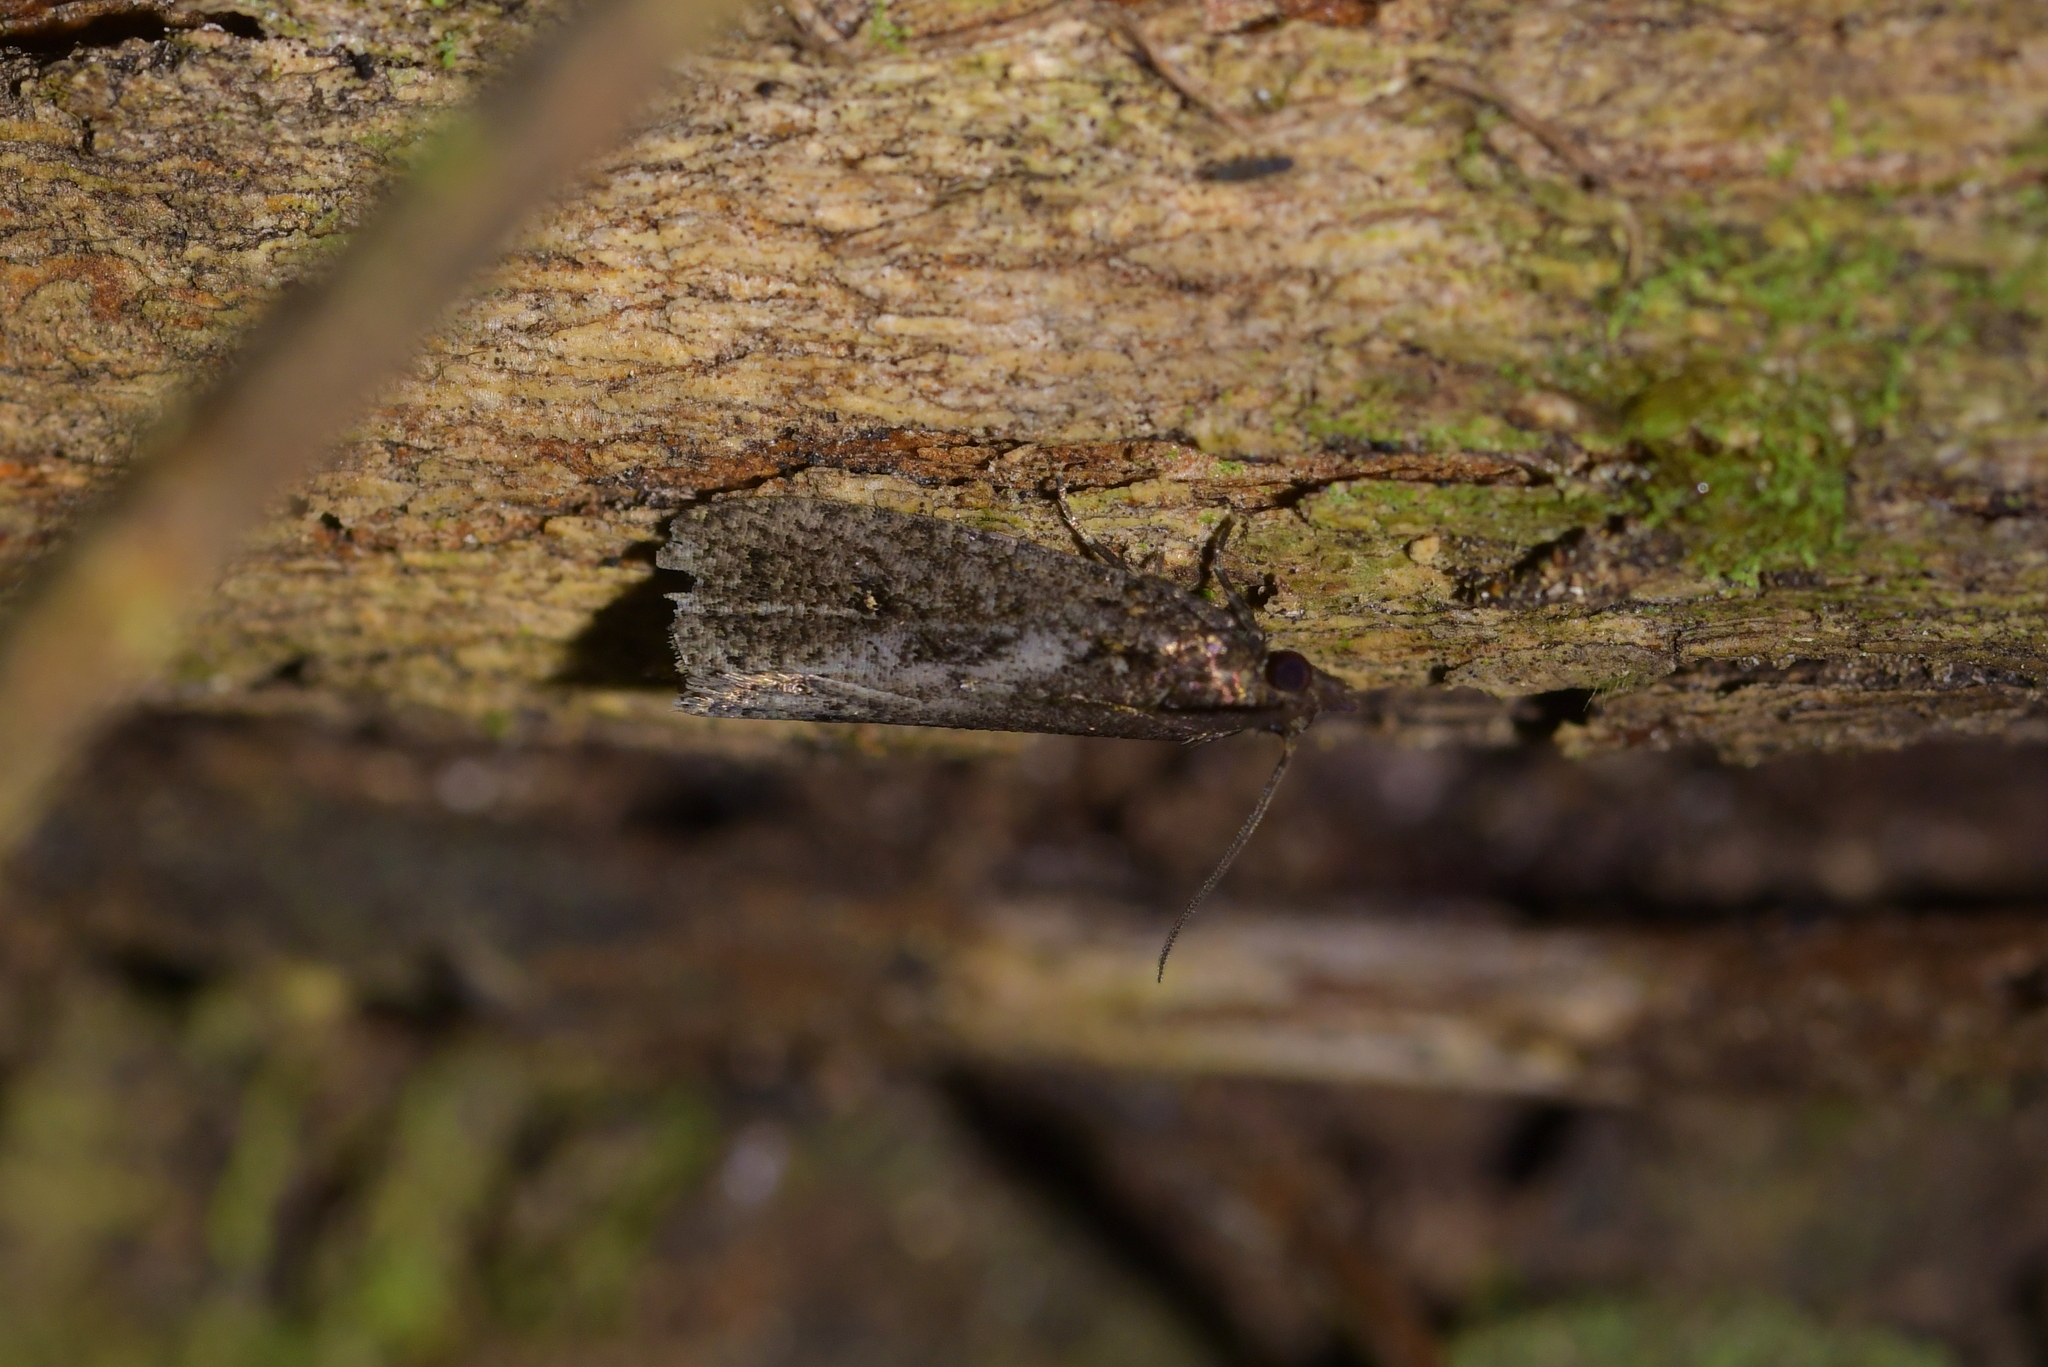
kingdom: Animalia
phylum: Arthropoda
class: Insecta
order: Lepidoptera
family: Tortricidae
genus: Cryptaspasma
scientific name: Cryptaspasma querula
